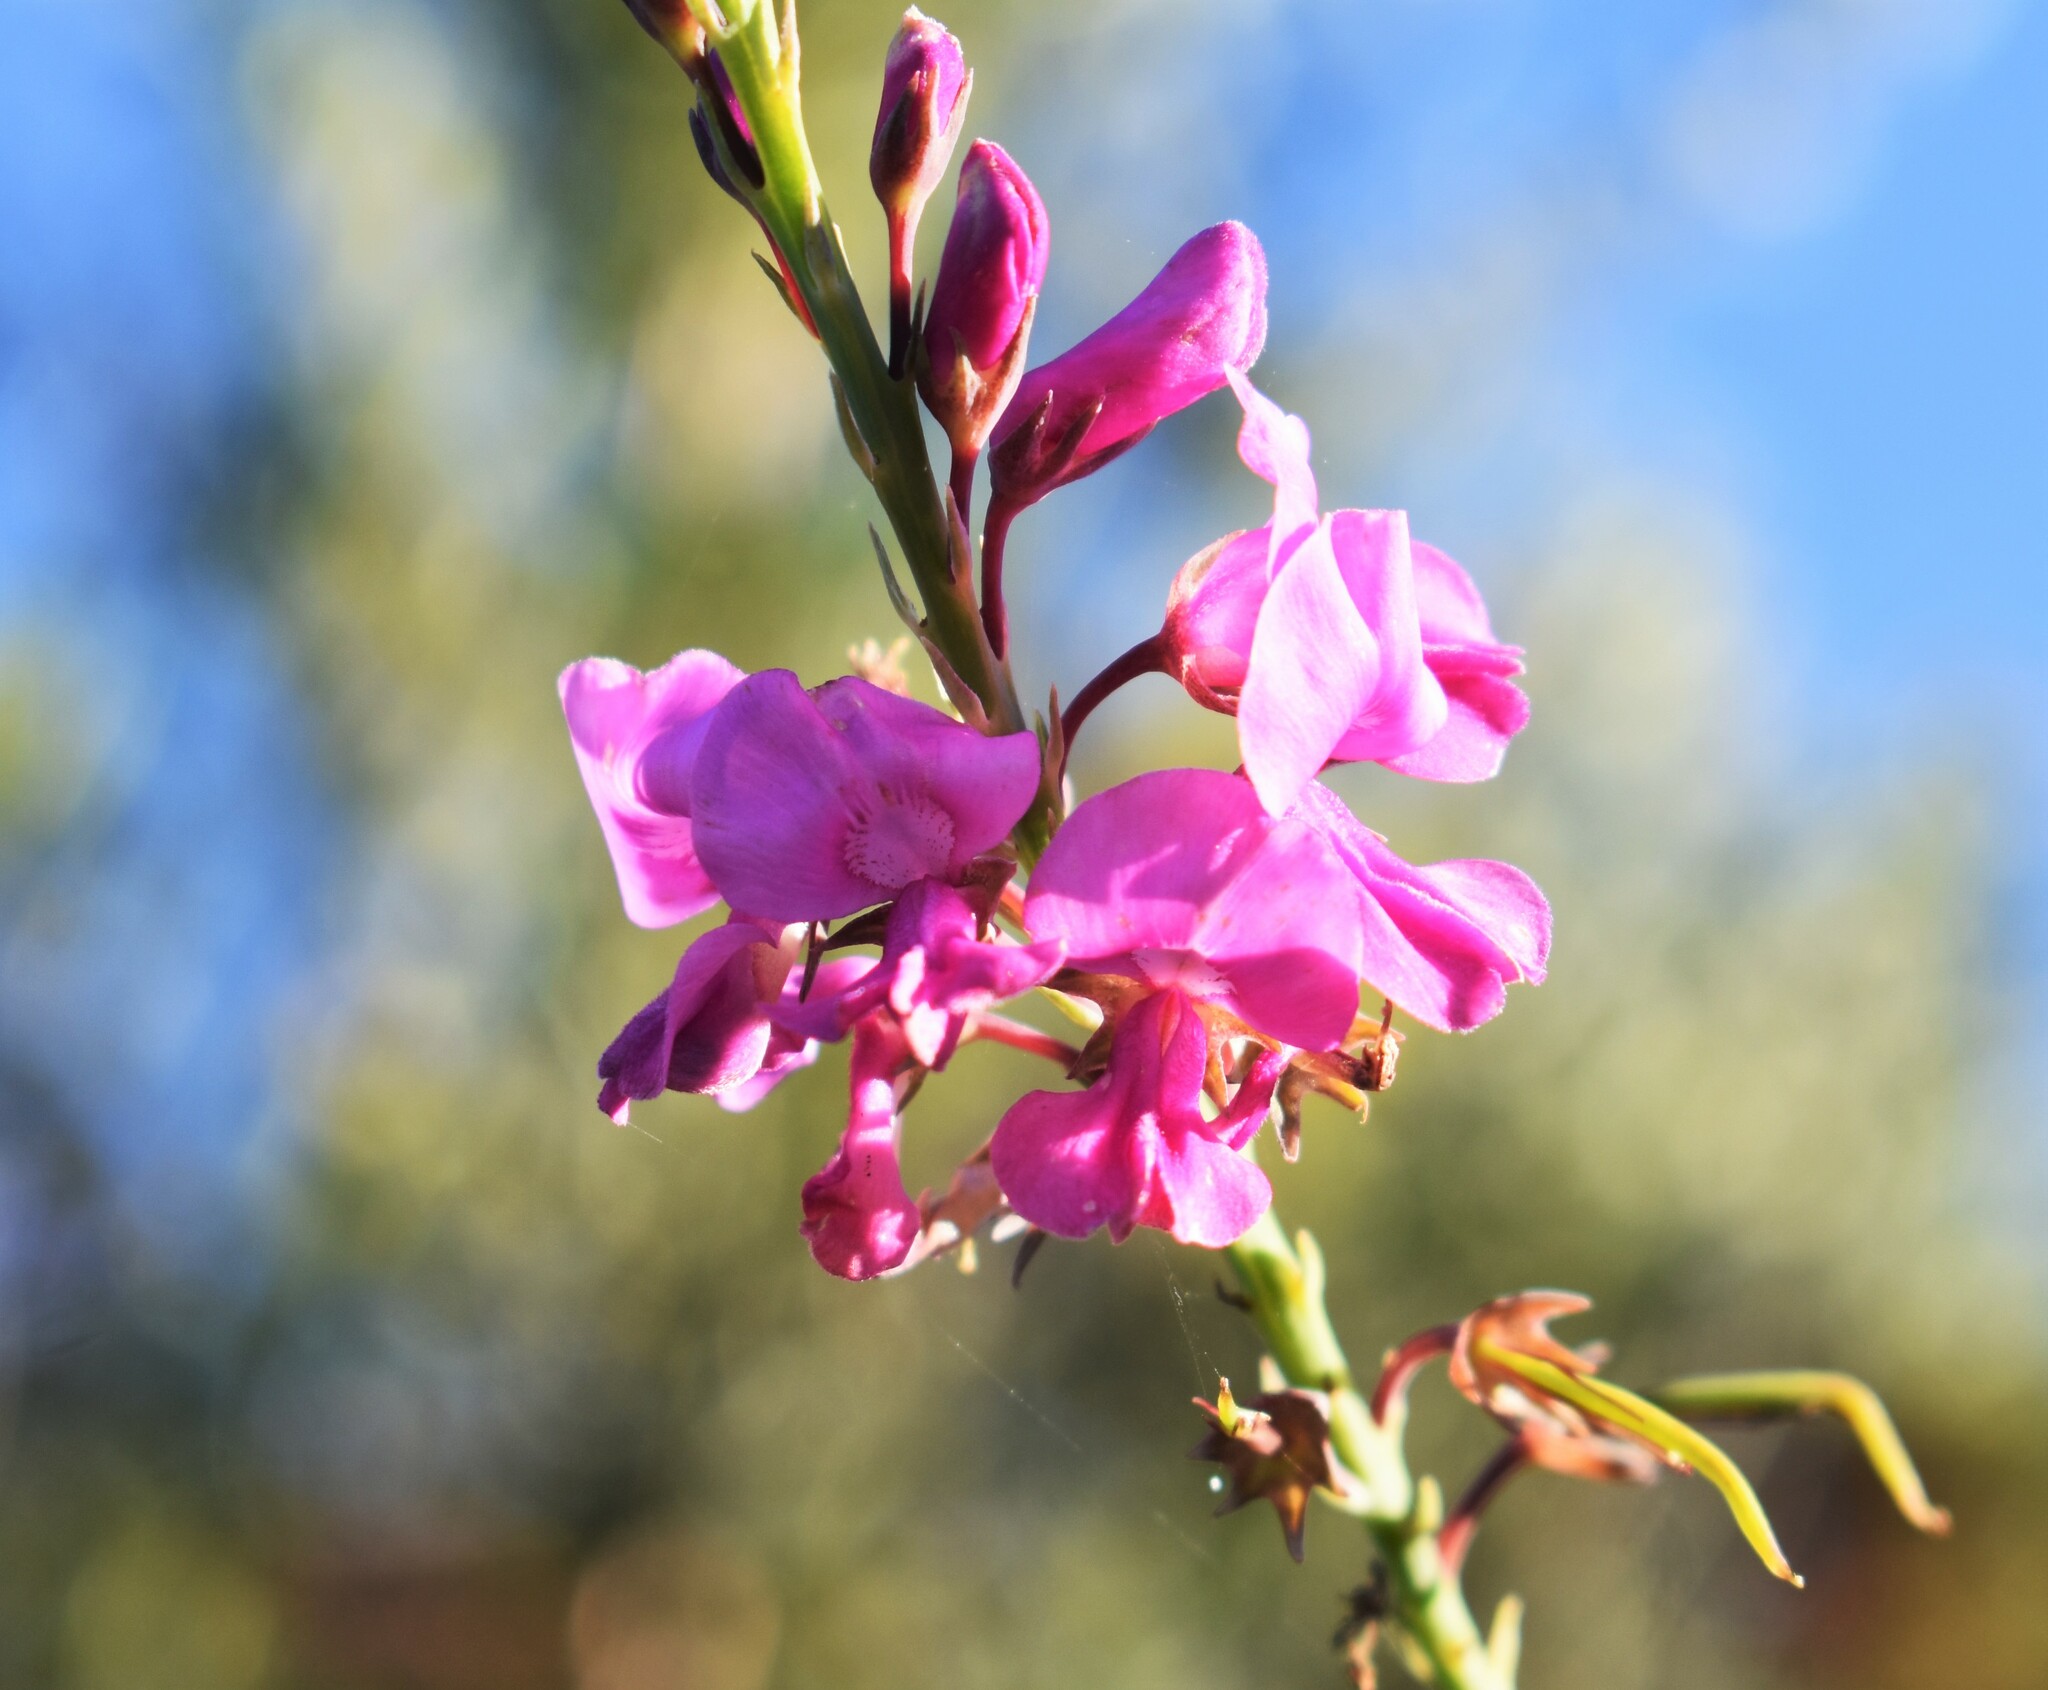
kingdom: Plantae
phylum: Tracheophyta
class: Magnoliopsida
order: Fabales
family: Fabaceae
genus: Indigofera
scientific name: Indigofera filifolia
